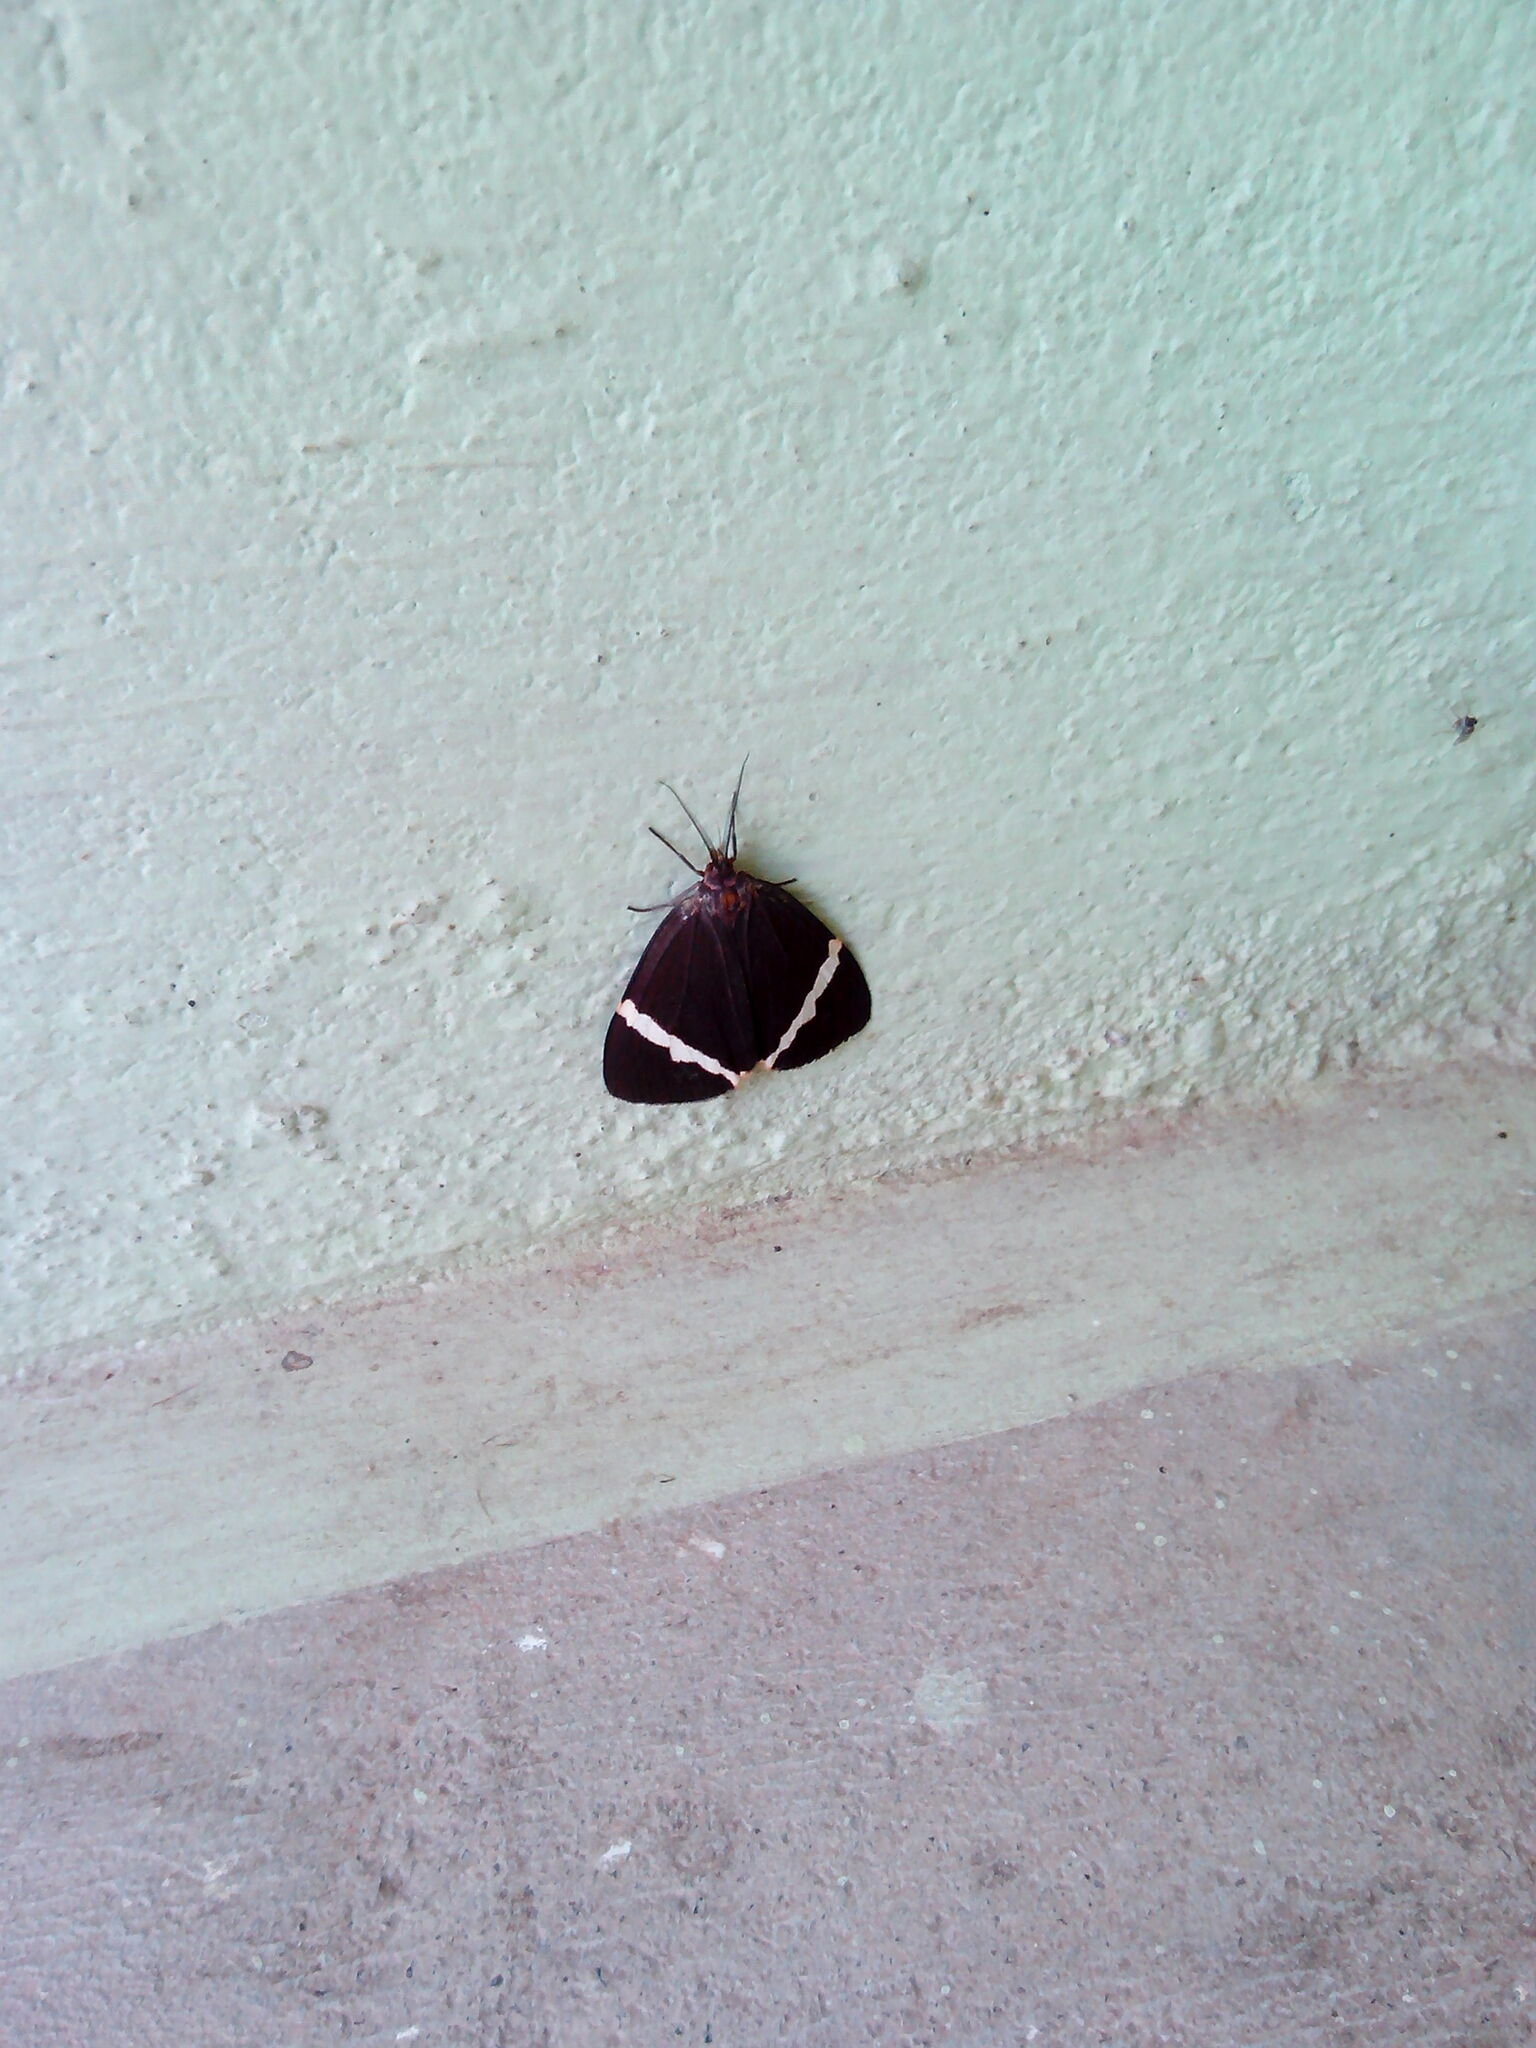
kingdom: Animalia
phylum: Arthropoda
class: Insecta
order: Lepidoptera
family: Erebidae
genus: Curoba
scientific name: Curoba sangarida
